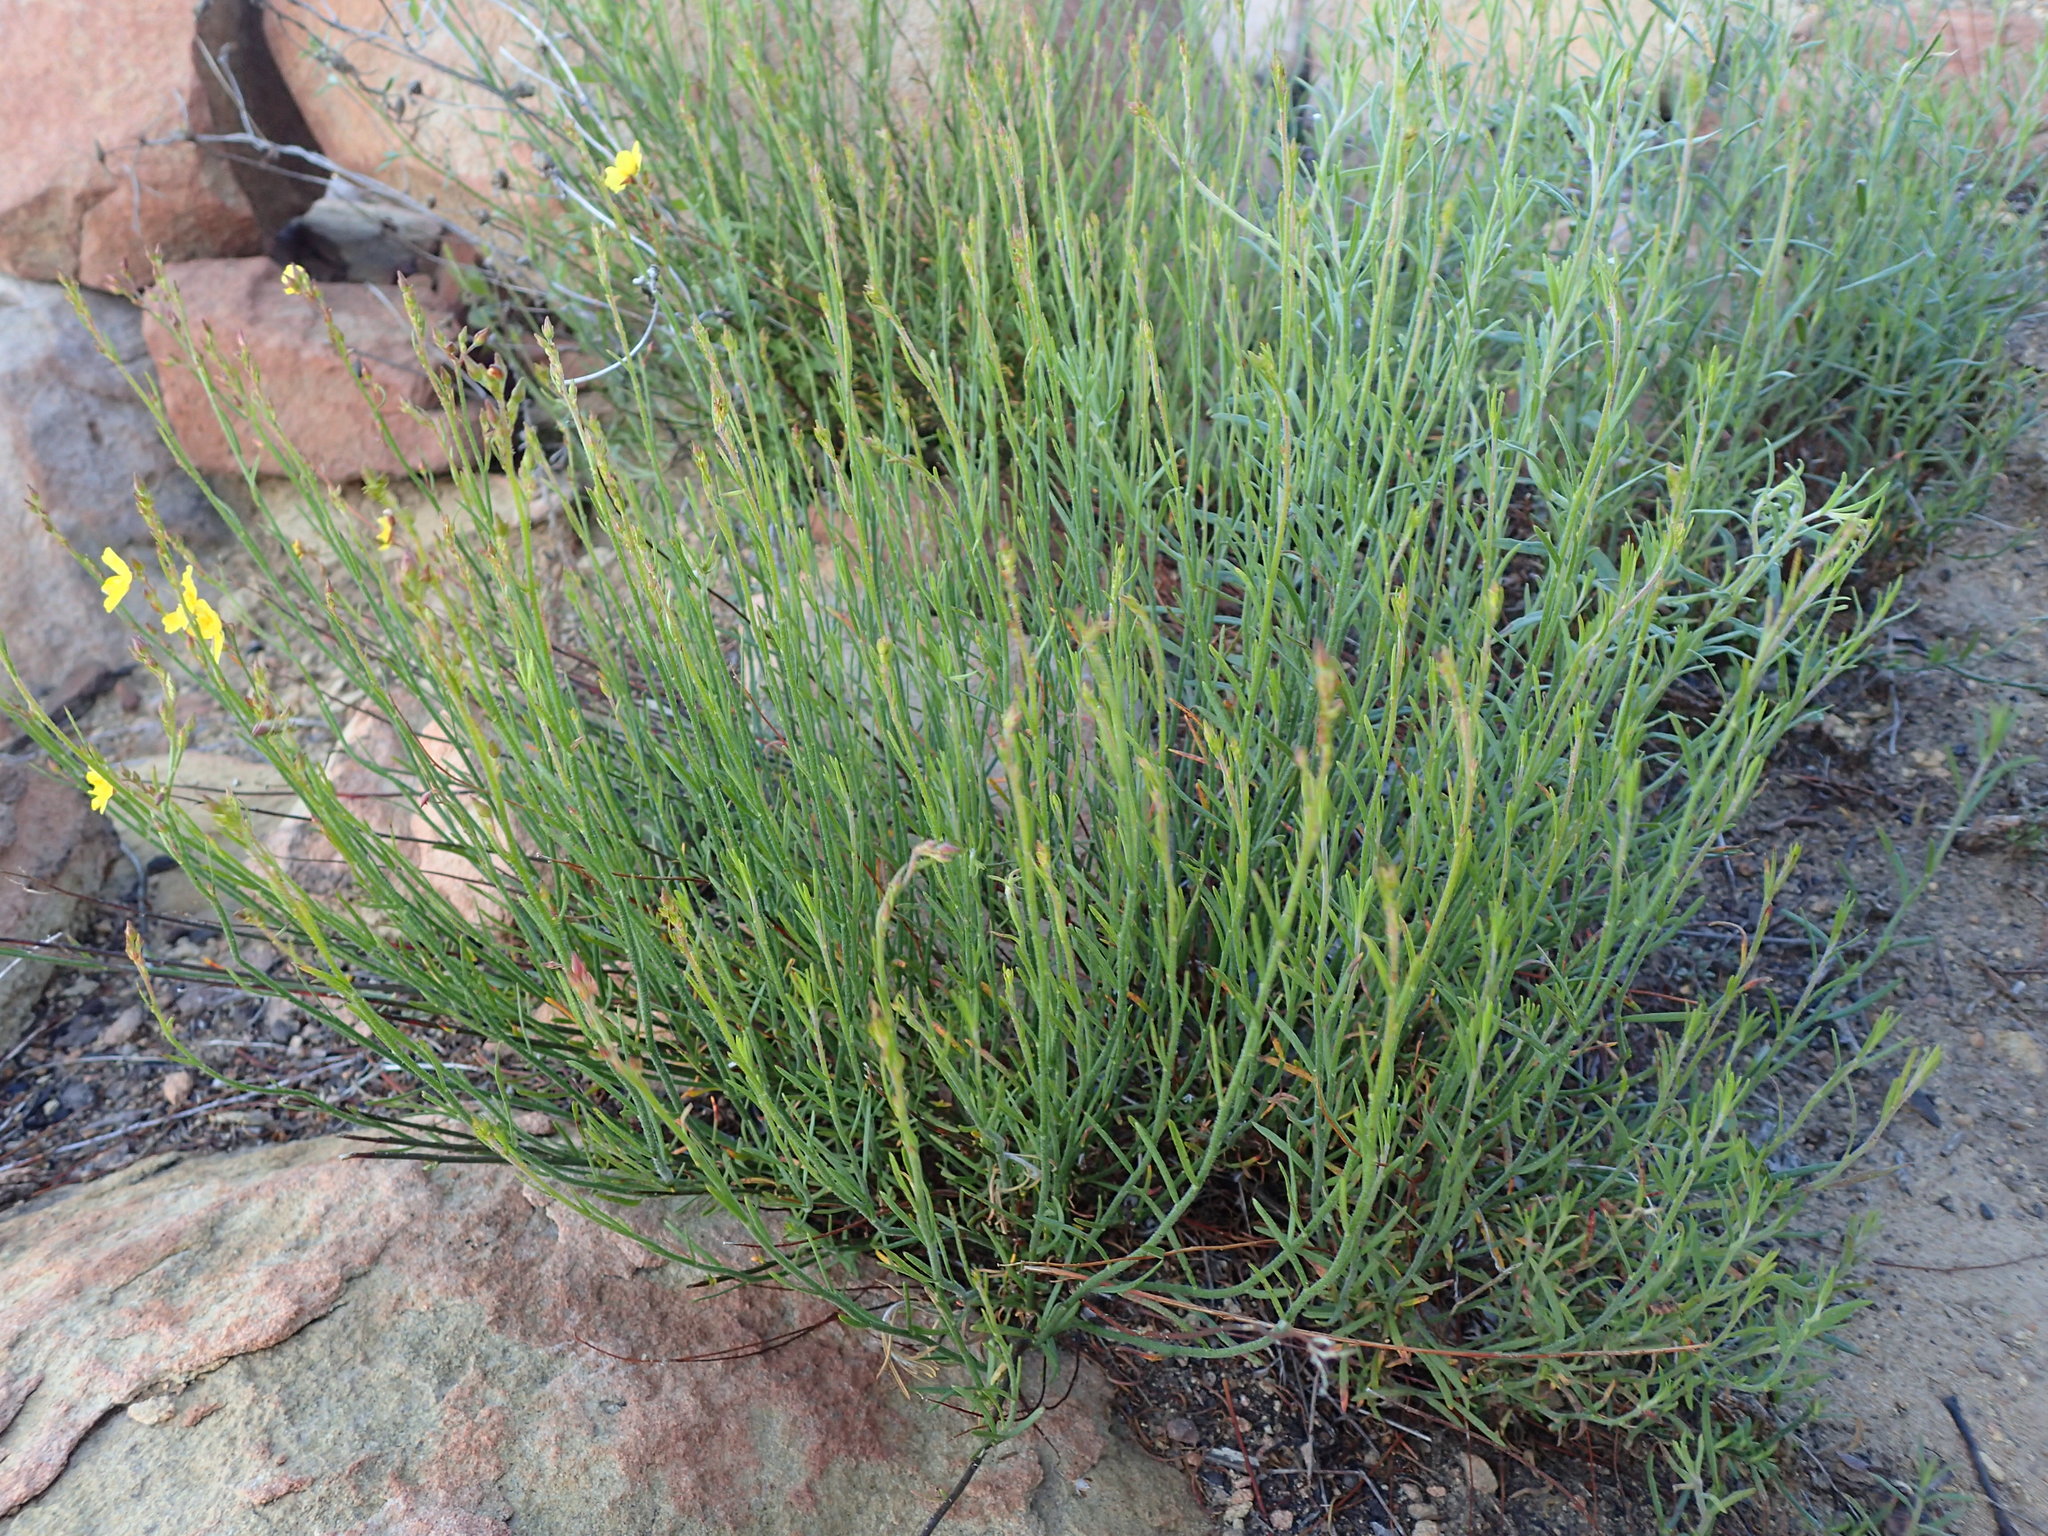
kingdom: Plantae
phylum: Tracheophyta
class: Magnoliopsida
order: Malvales
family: Cistaceae
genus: Crocanthemum
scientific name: Crocanthemum scoparium
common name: Broom-rose
